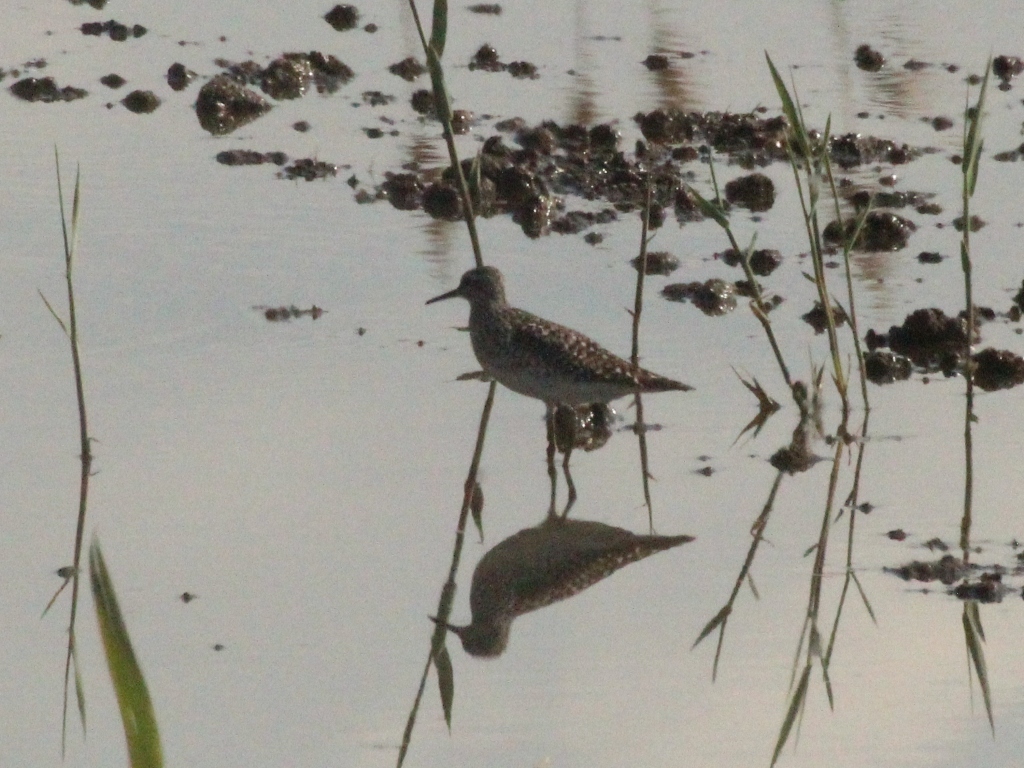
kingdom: Animalia
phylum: Chordata
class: Aves
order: Charadriiformes
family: Scolopacidae
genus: Tringa
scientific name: Tringa glareola
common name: Wood sandpiper
